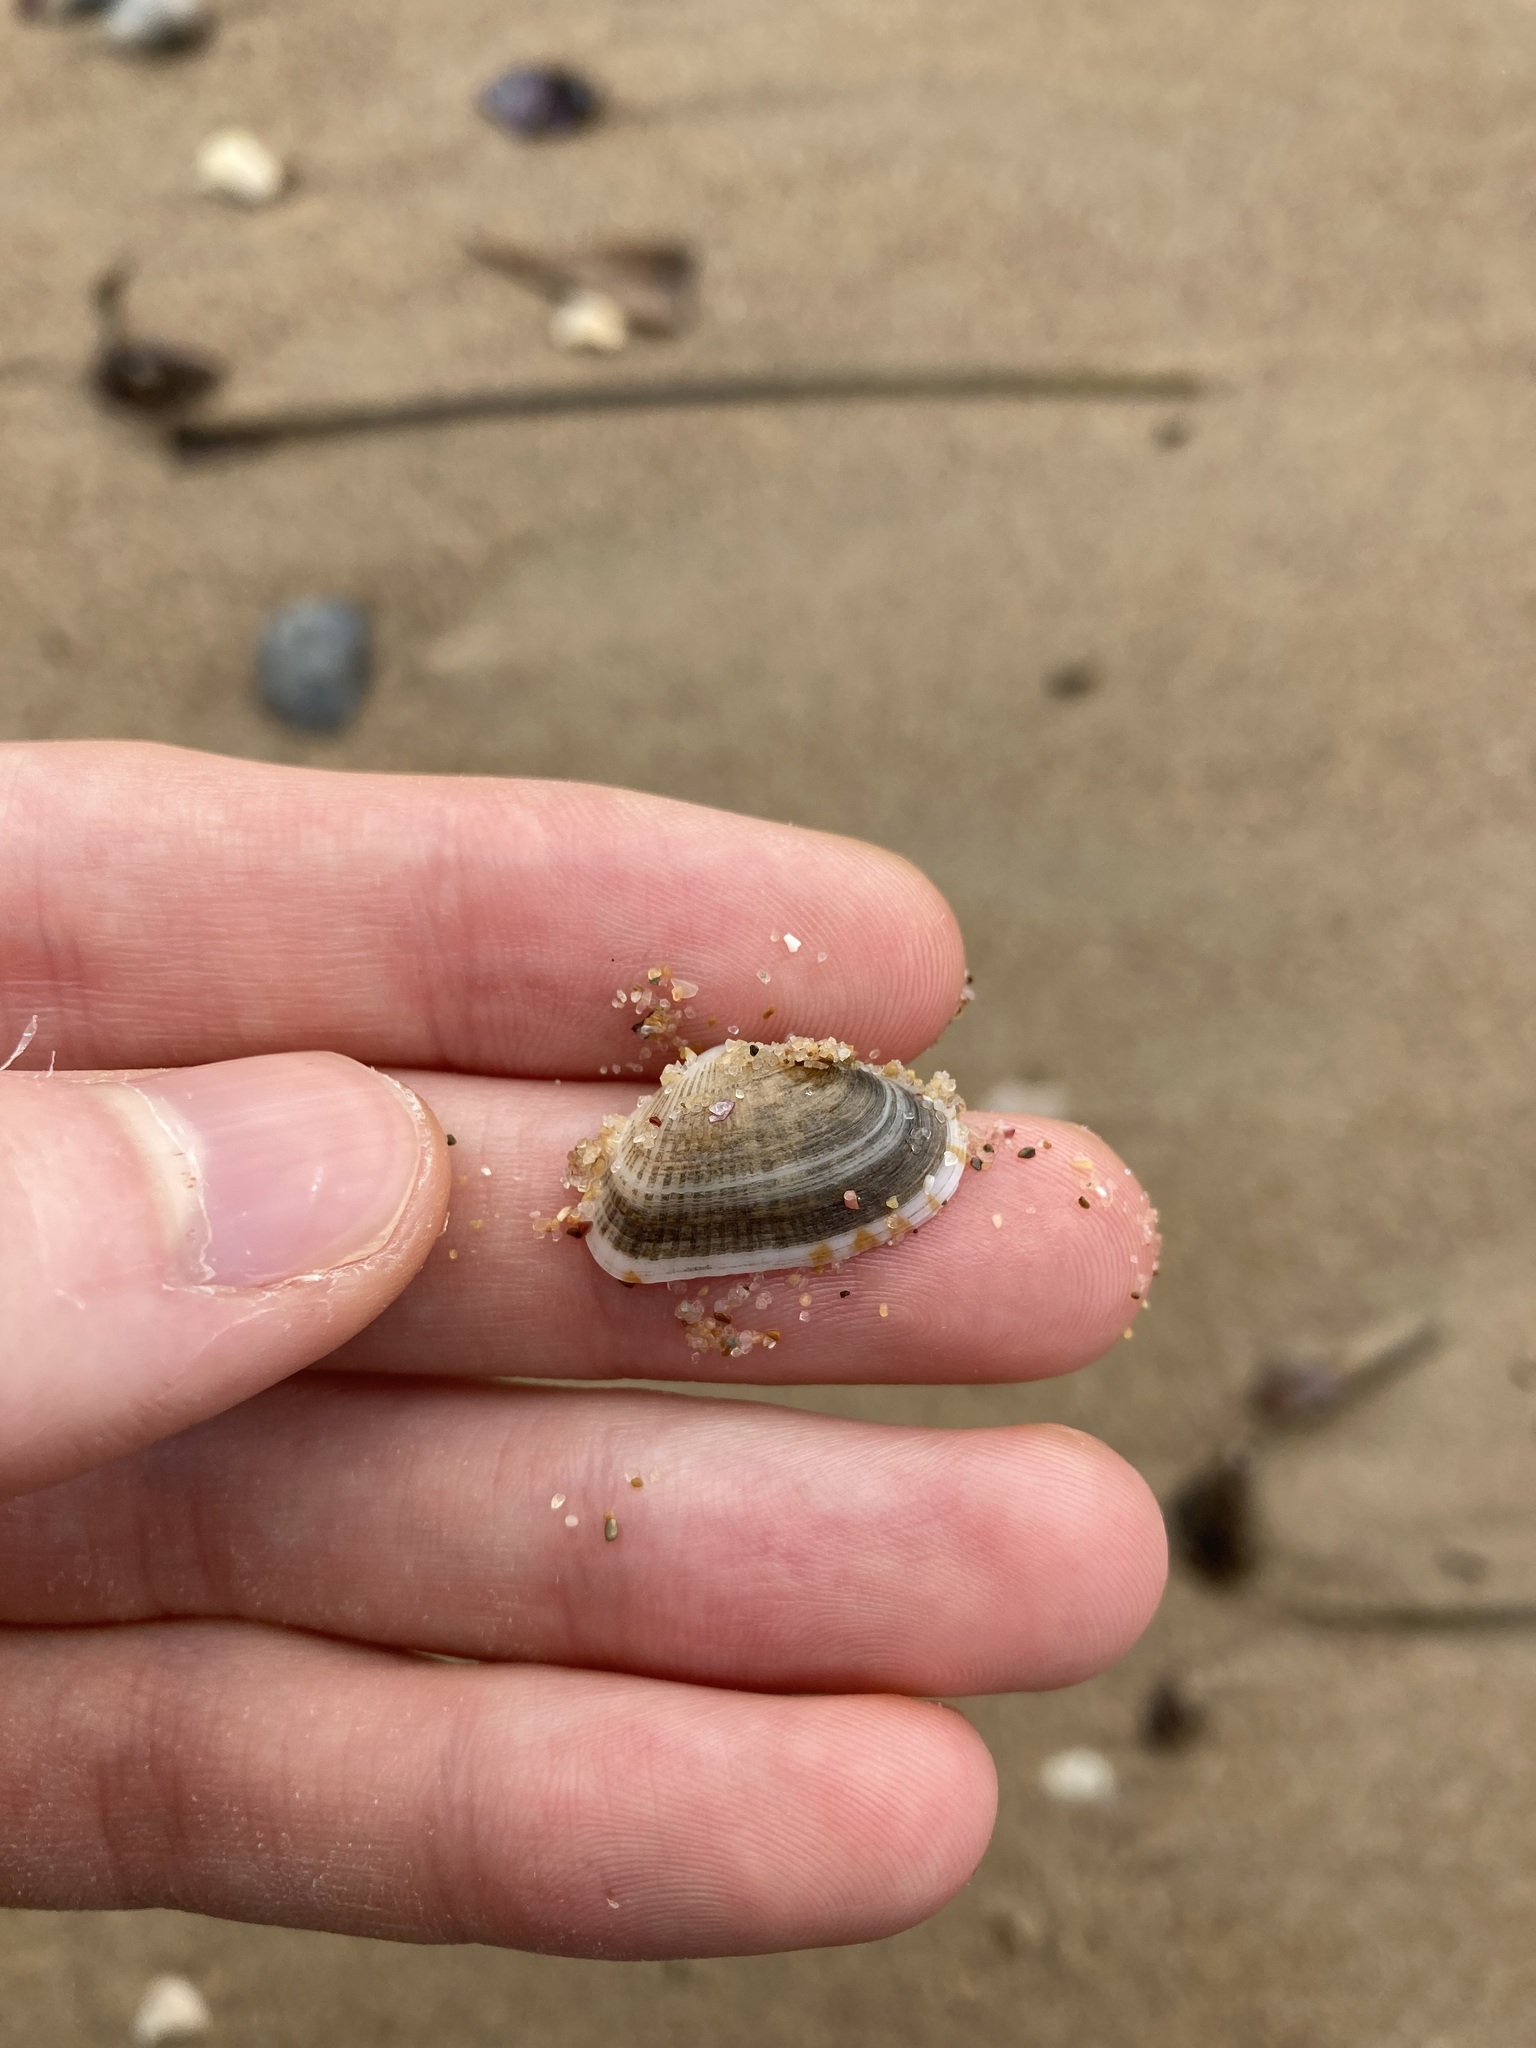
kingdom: Animalia
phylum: Mollusca
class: Bivalvia
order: Venerida
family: Hemidonacidae
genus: Hemidonax
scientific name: Hemidonax dactylus
